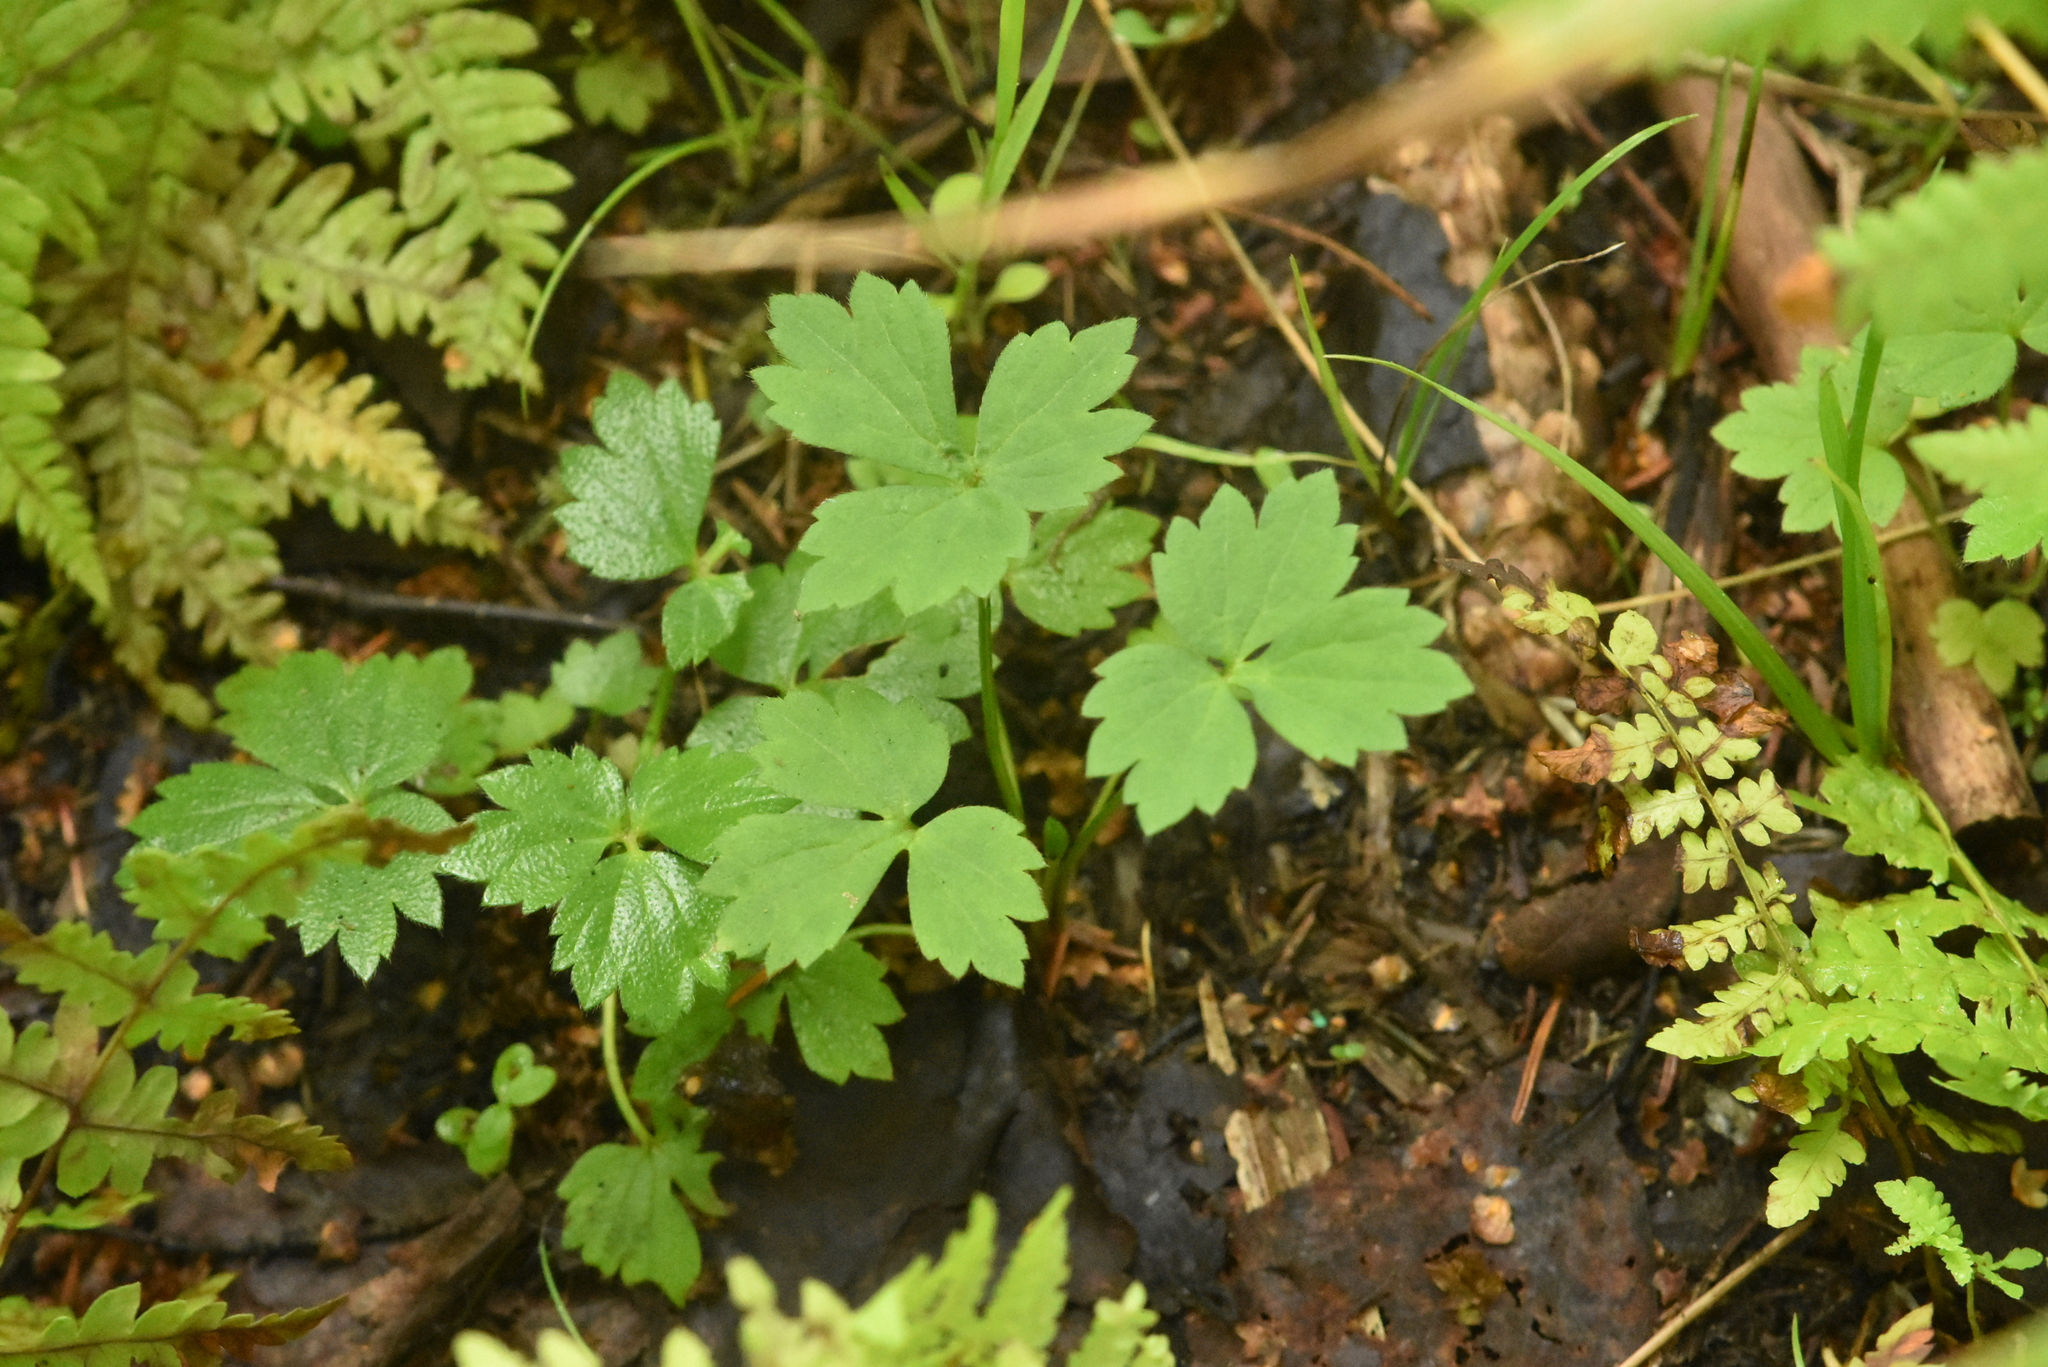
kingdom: Plantae
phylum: Tracheophyta
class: Magnoliopsida
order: Ranunculales
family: Ranunculaceae
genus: Ranunculus
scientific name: Ranunculus repens
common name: Creeping buttercup
